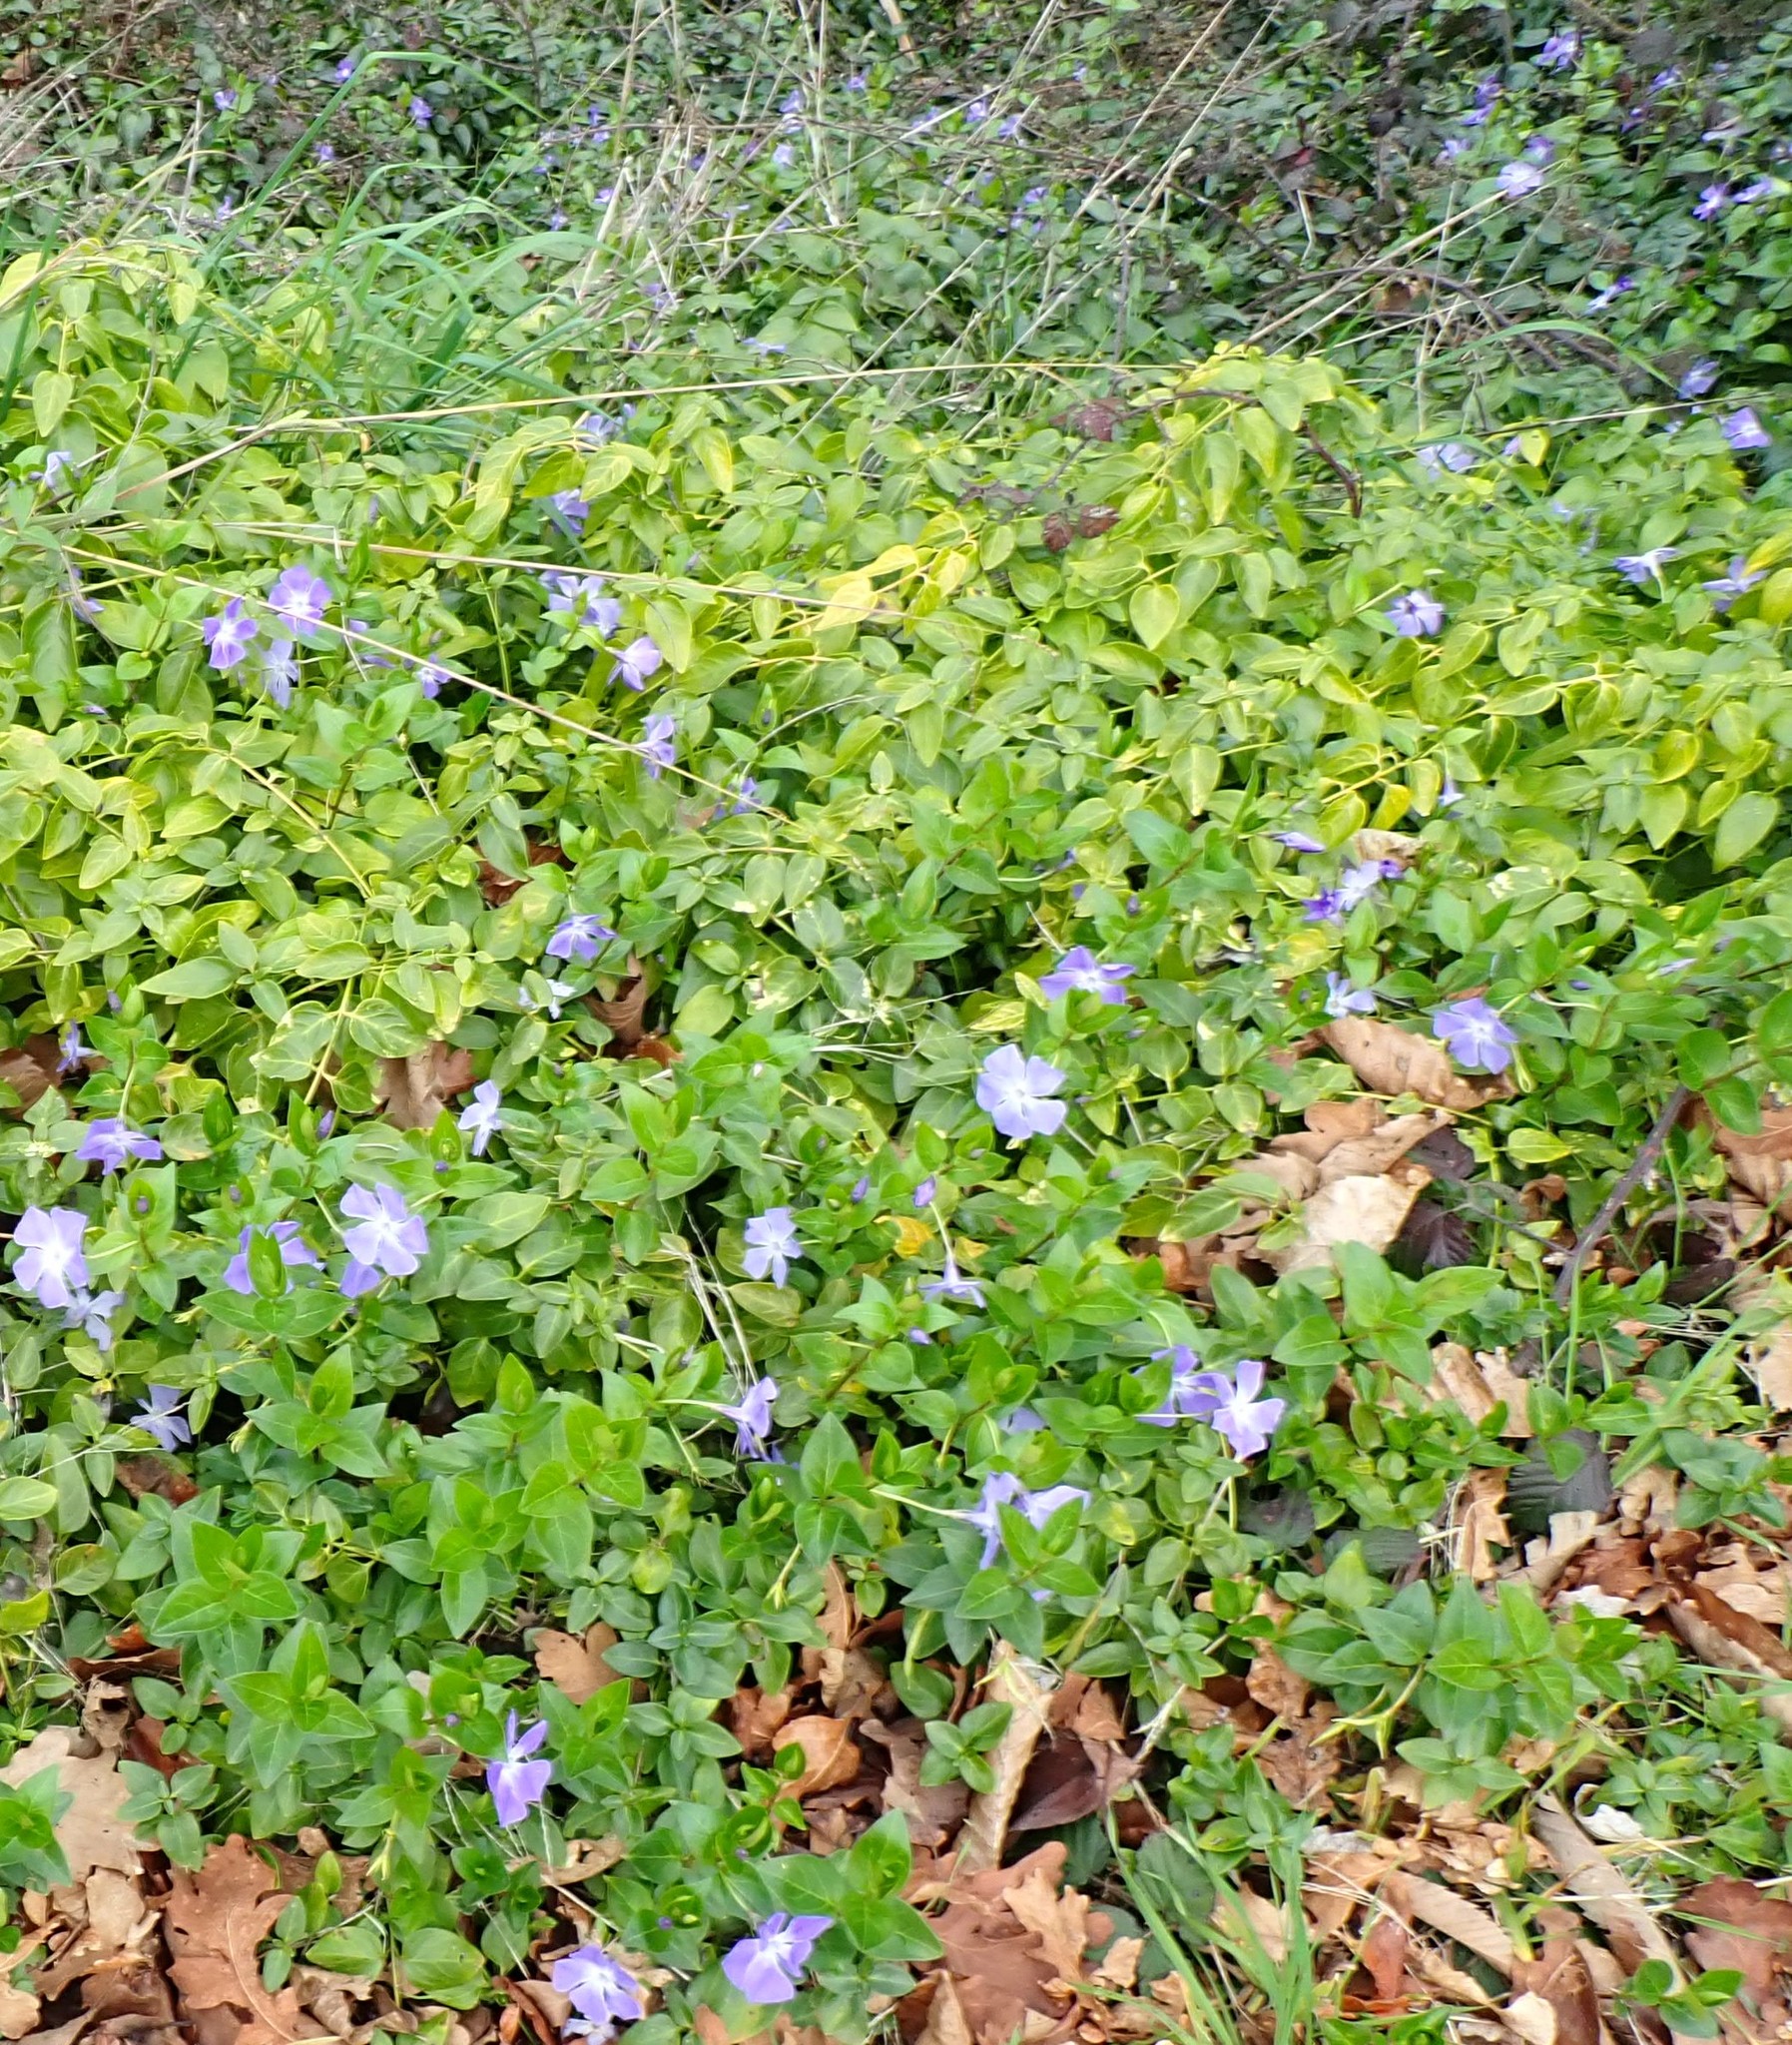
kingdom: Plantae
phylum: Tracheophyta
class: Magnoliopsida
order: Gentianales
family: Apocynaceae
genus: Vinca
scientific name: Vinca major
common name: Greater periwinkle
